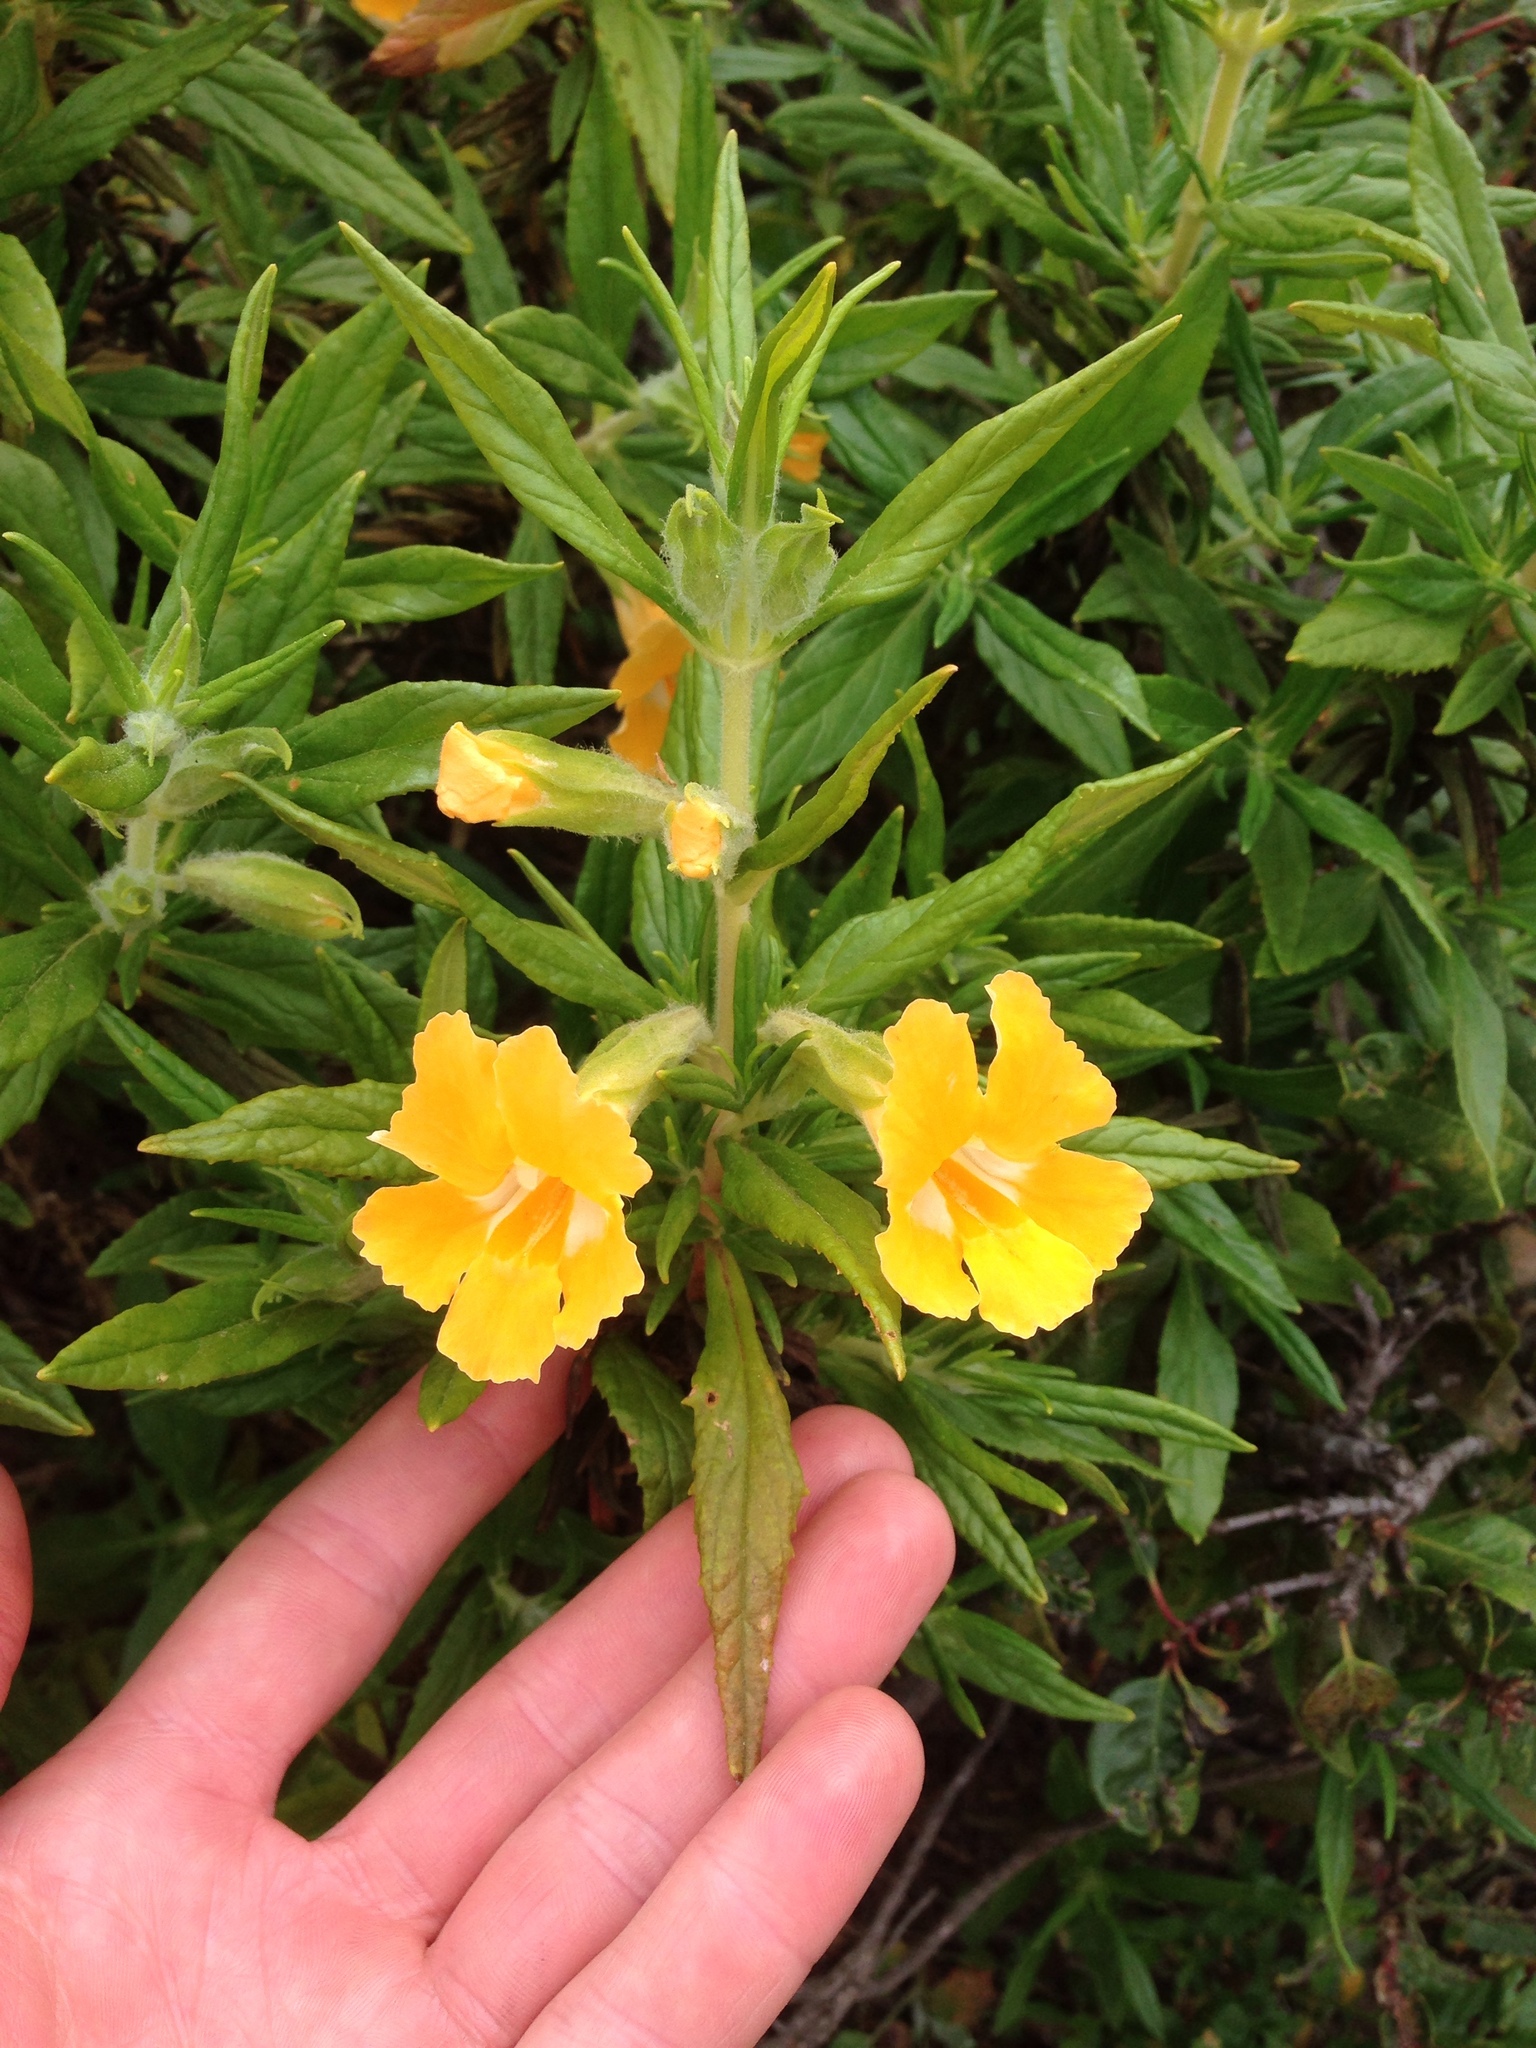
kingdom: Plantae
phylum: Tracheophyta
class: Magnoliopsida
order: Lamiales
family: Phrymaceae
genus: Diplacus
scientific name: Diplacus longiflorus
